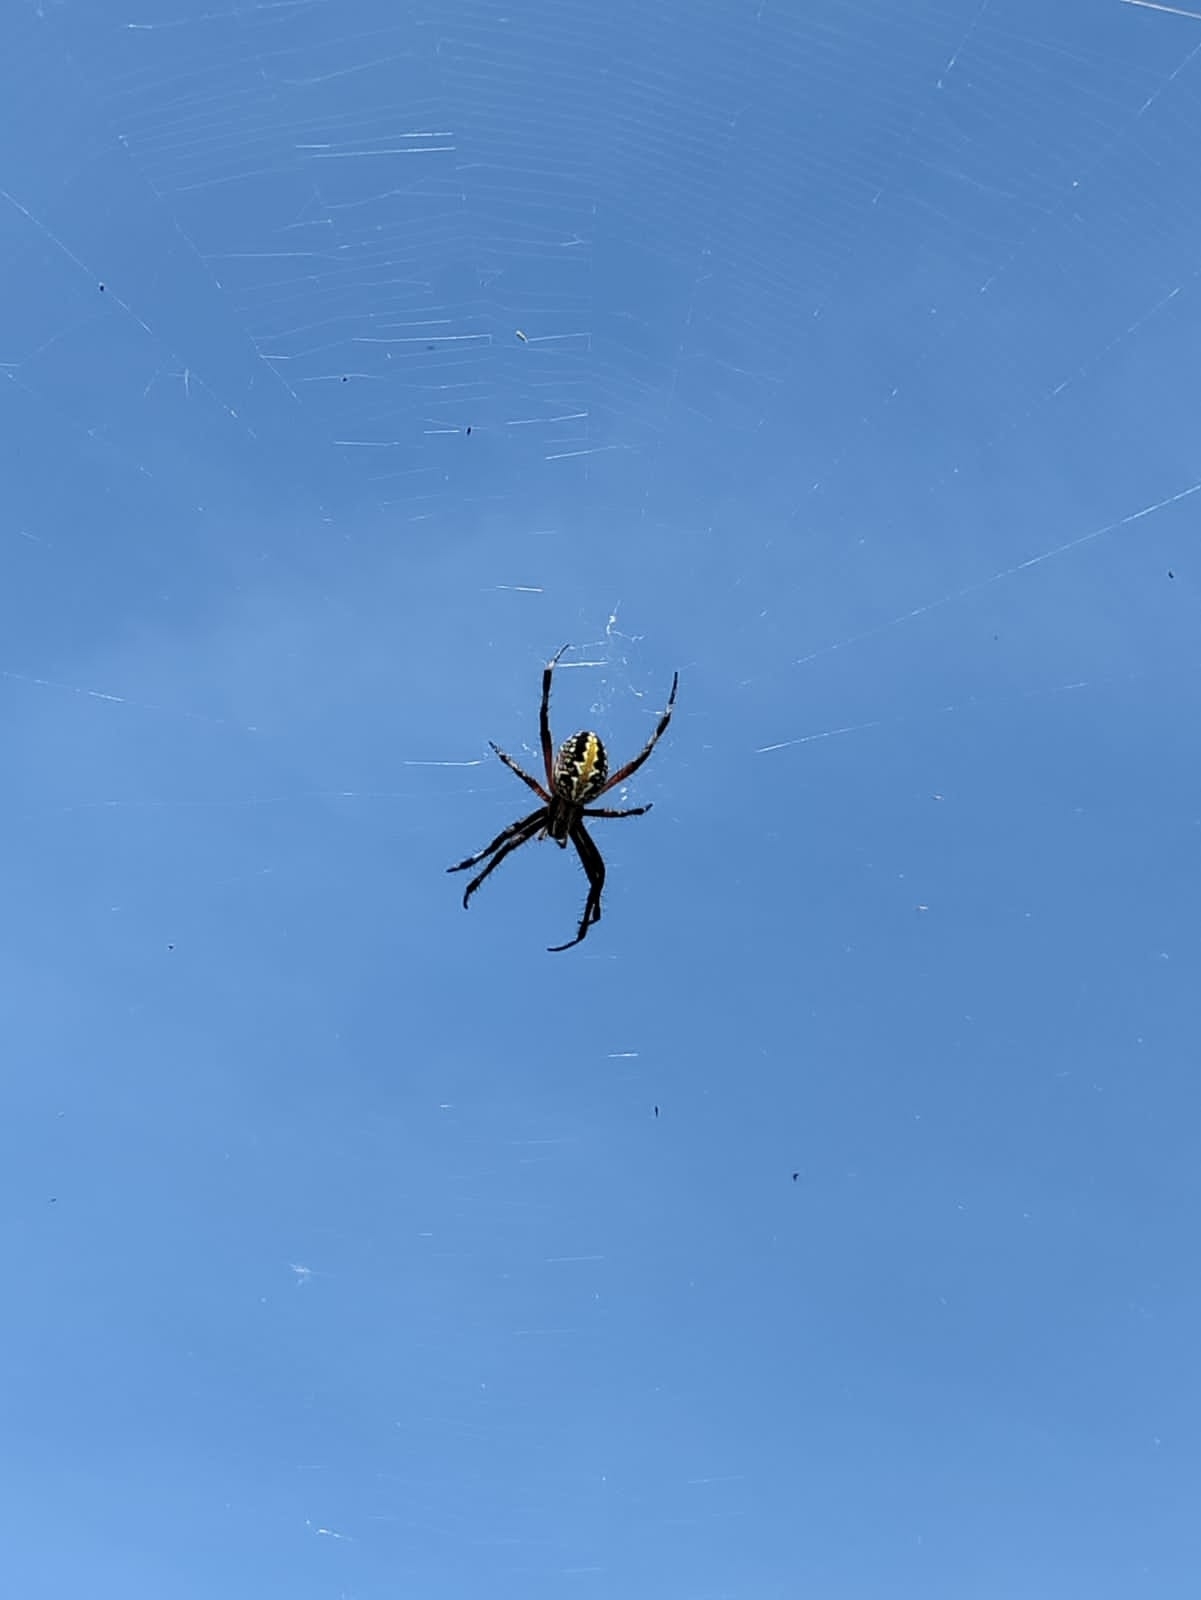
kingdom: Animalia
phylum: Arthropoda
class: Arachnida
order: Araneae
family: Araneidae
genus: Neoscona
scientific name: Neoscona oaxacensis
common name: Orb weavers
